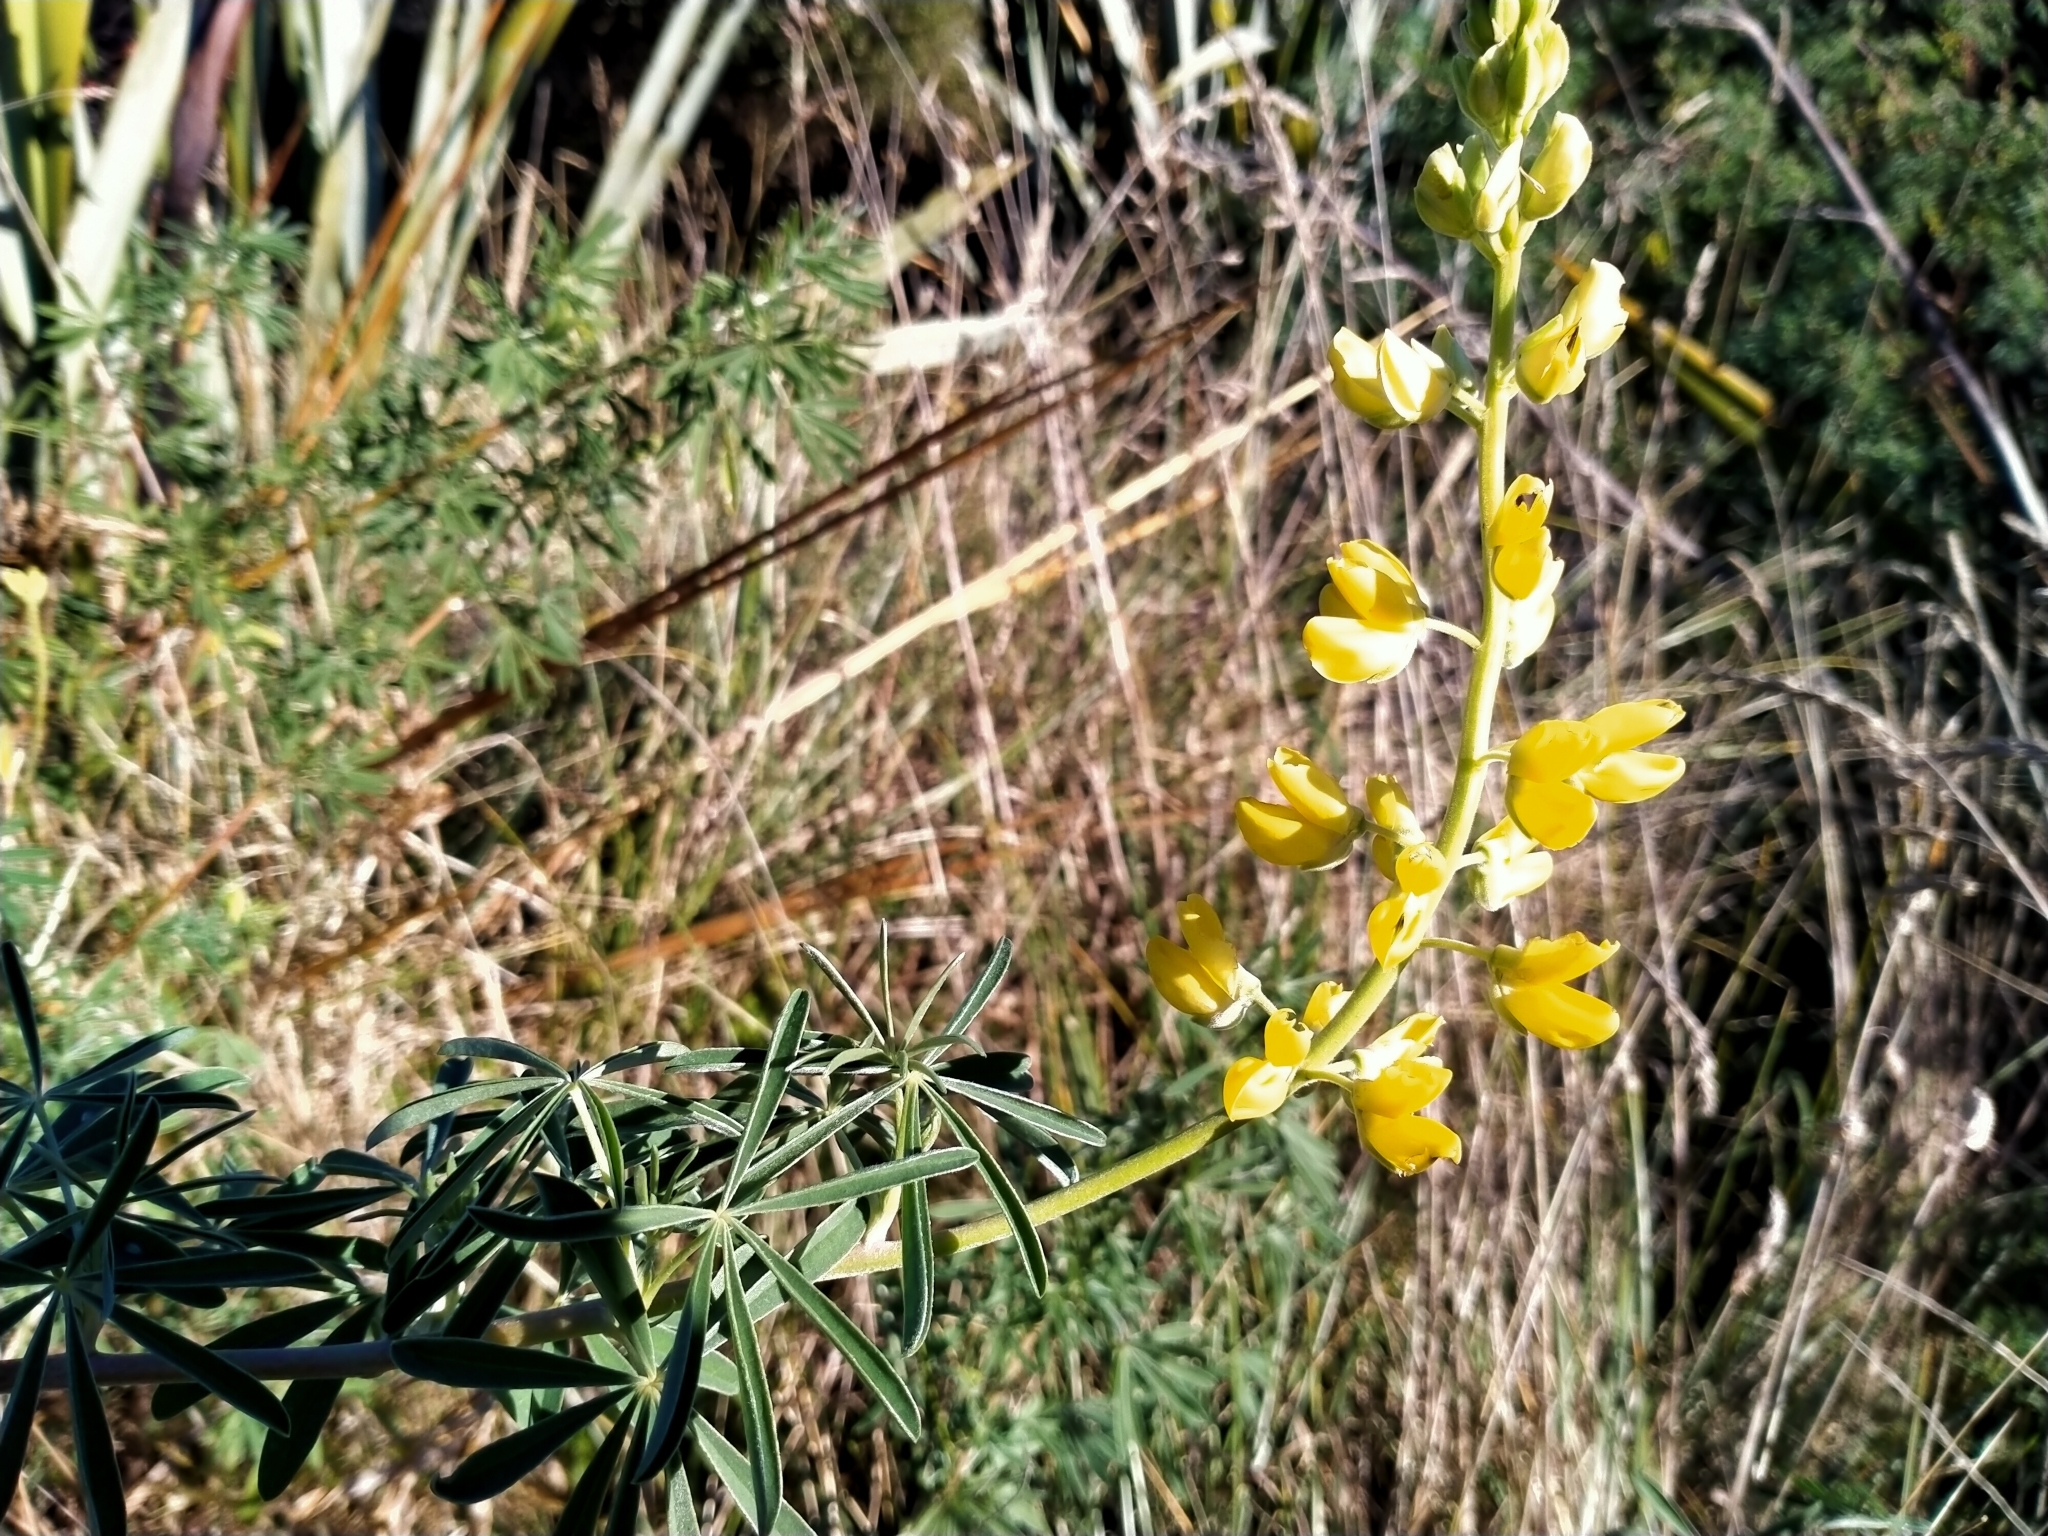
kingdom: Plantae
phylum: Tracheophyta
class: Magnoliopsida
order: Fabales
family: Fabaceae
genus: Lupinus
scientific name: Lupinus arboreus
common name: Yellow bush lupine
